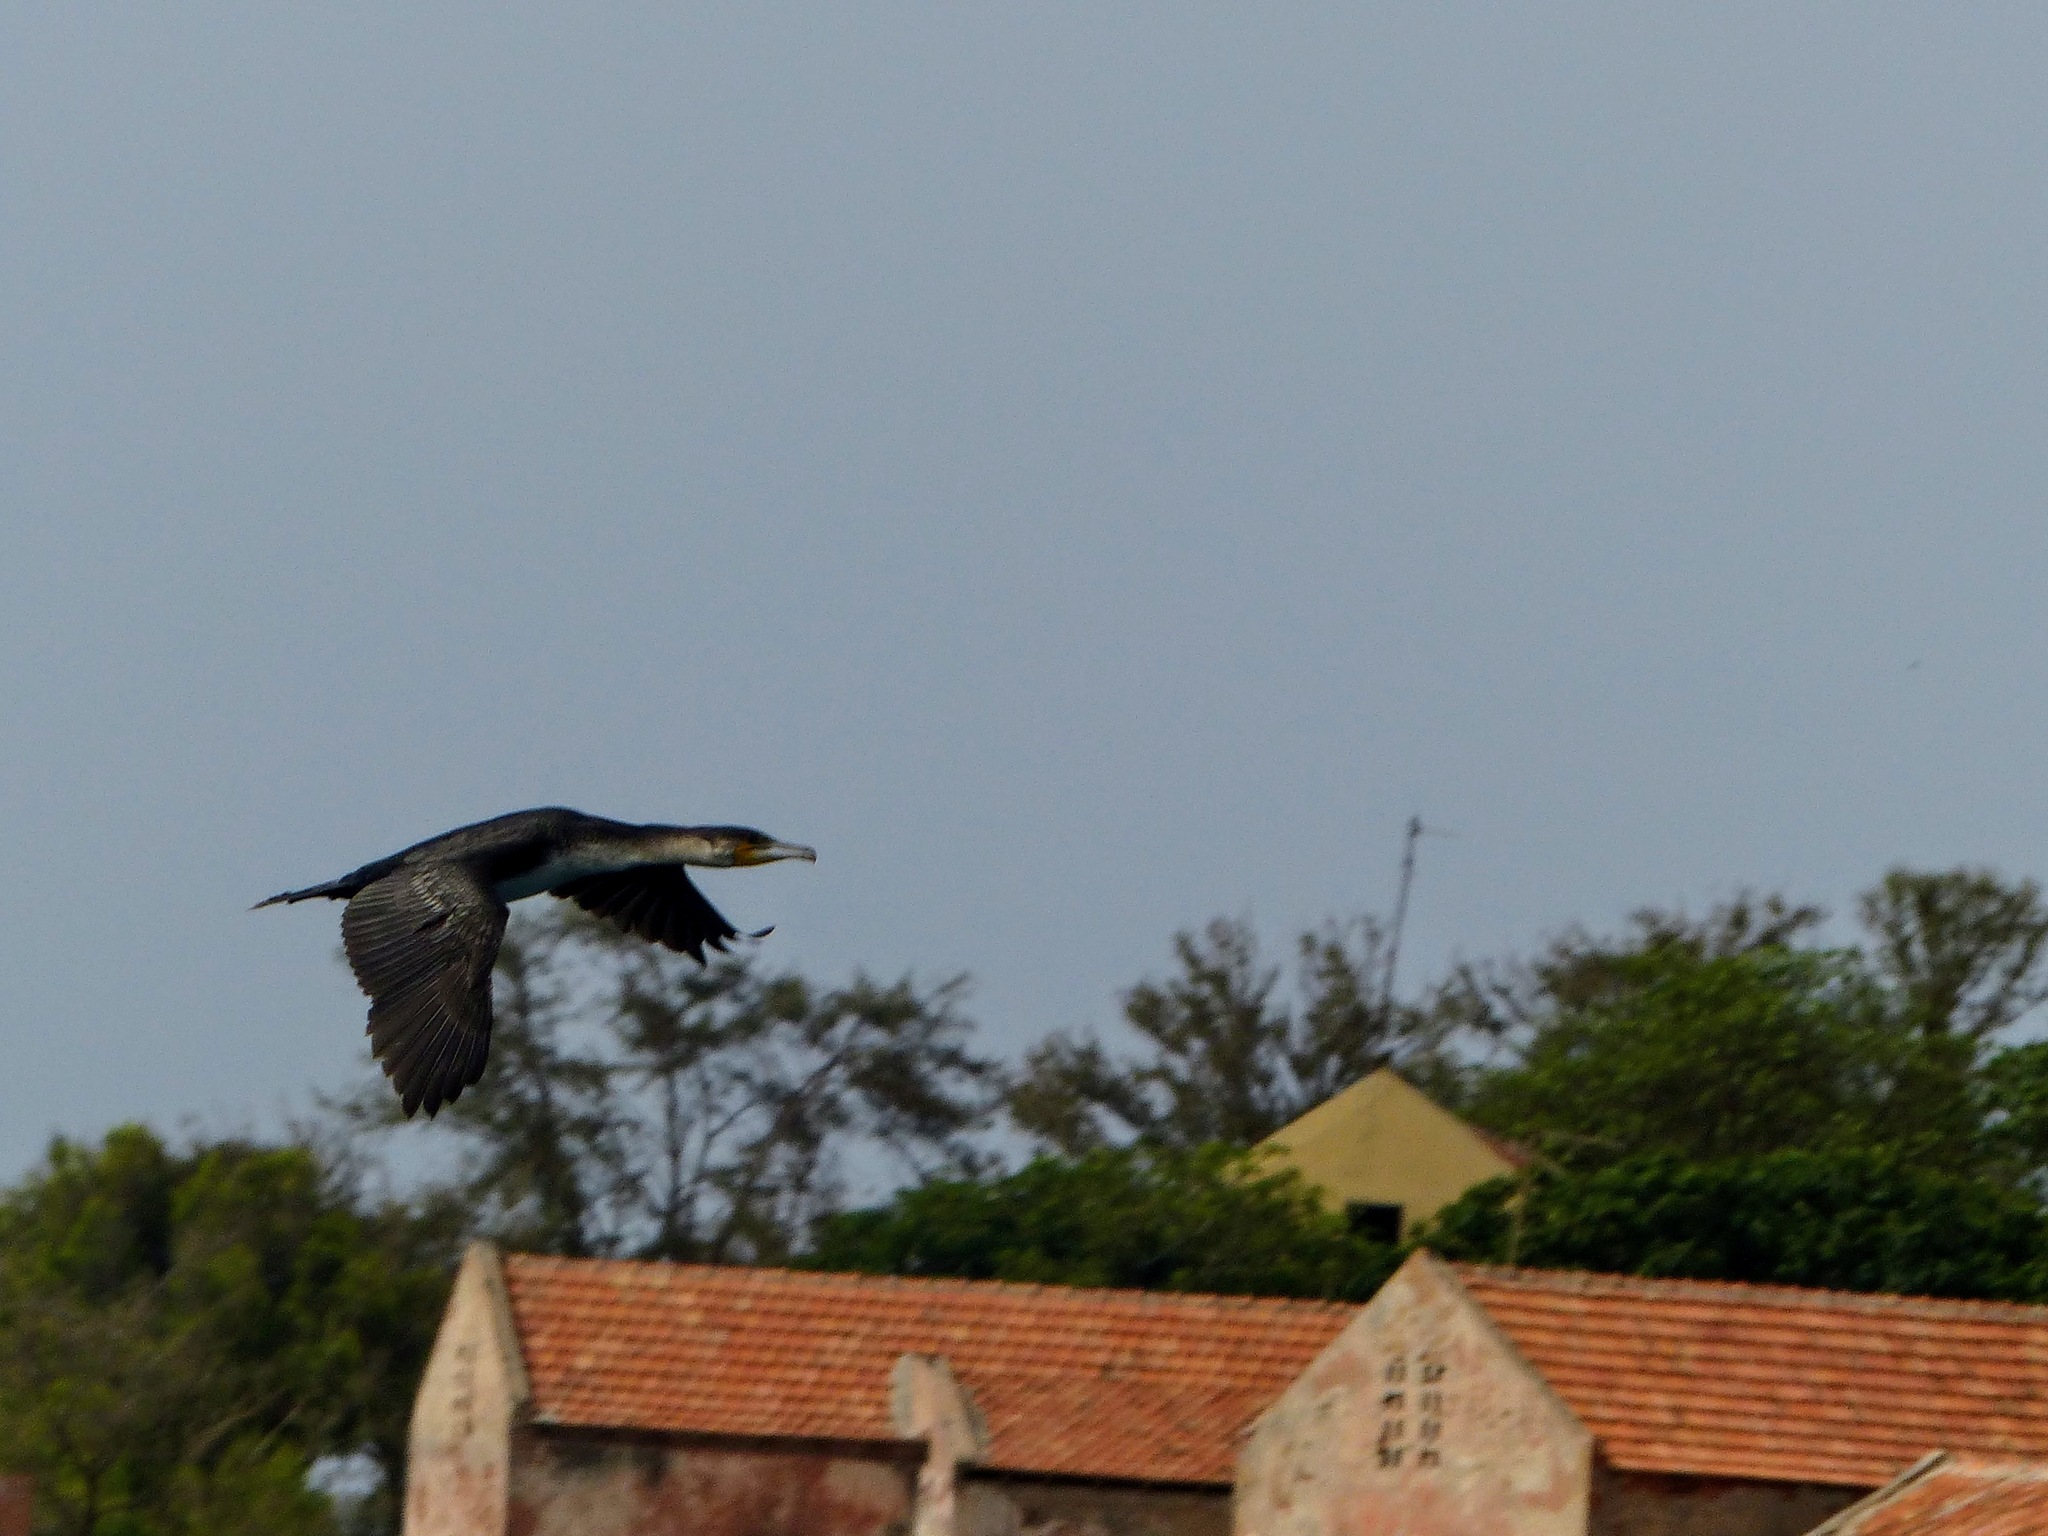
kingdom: Animalia
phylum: Chordata
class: Aves
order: Suliformes
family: Phalacrocoracidae
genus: Phalacrocorax
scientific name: Phalacrocorax carbo
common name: Great cormorant
